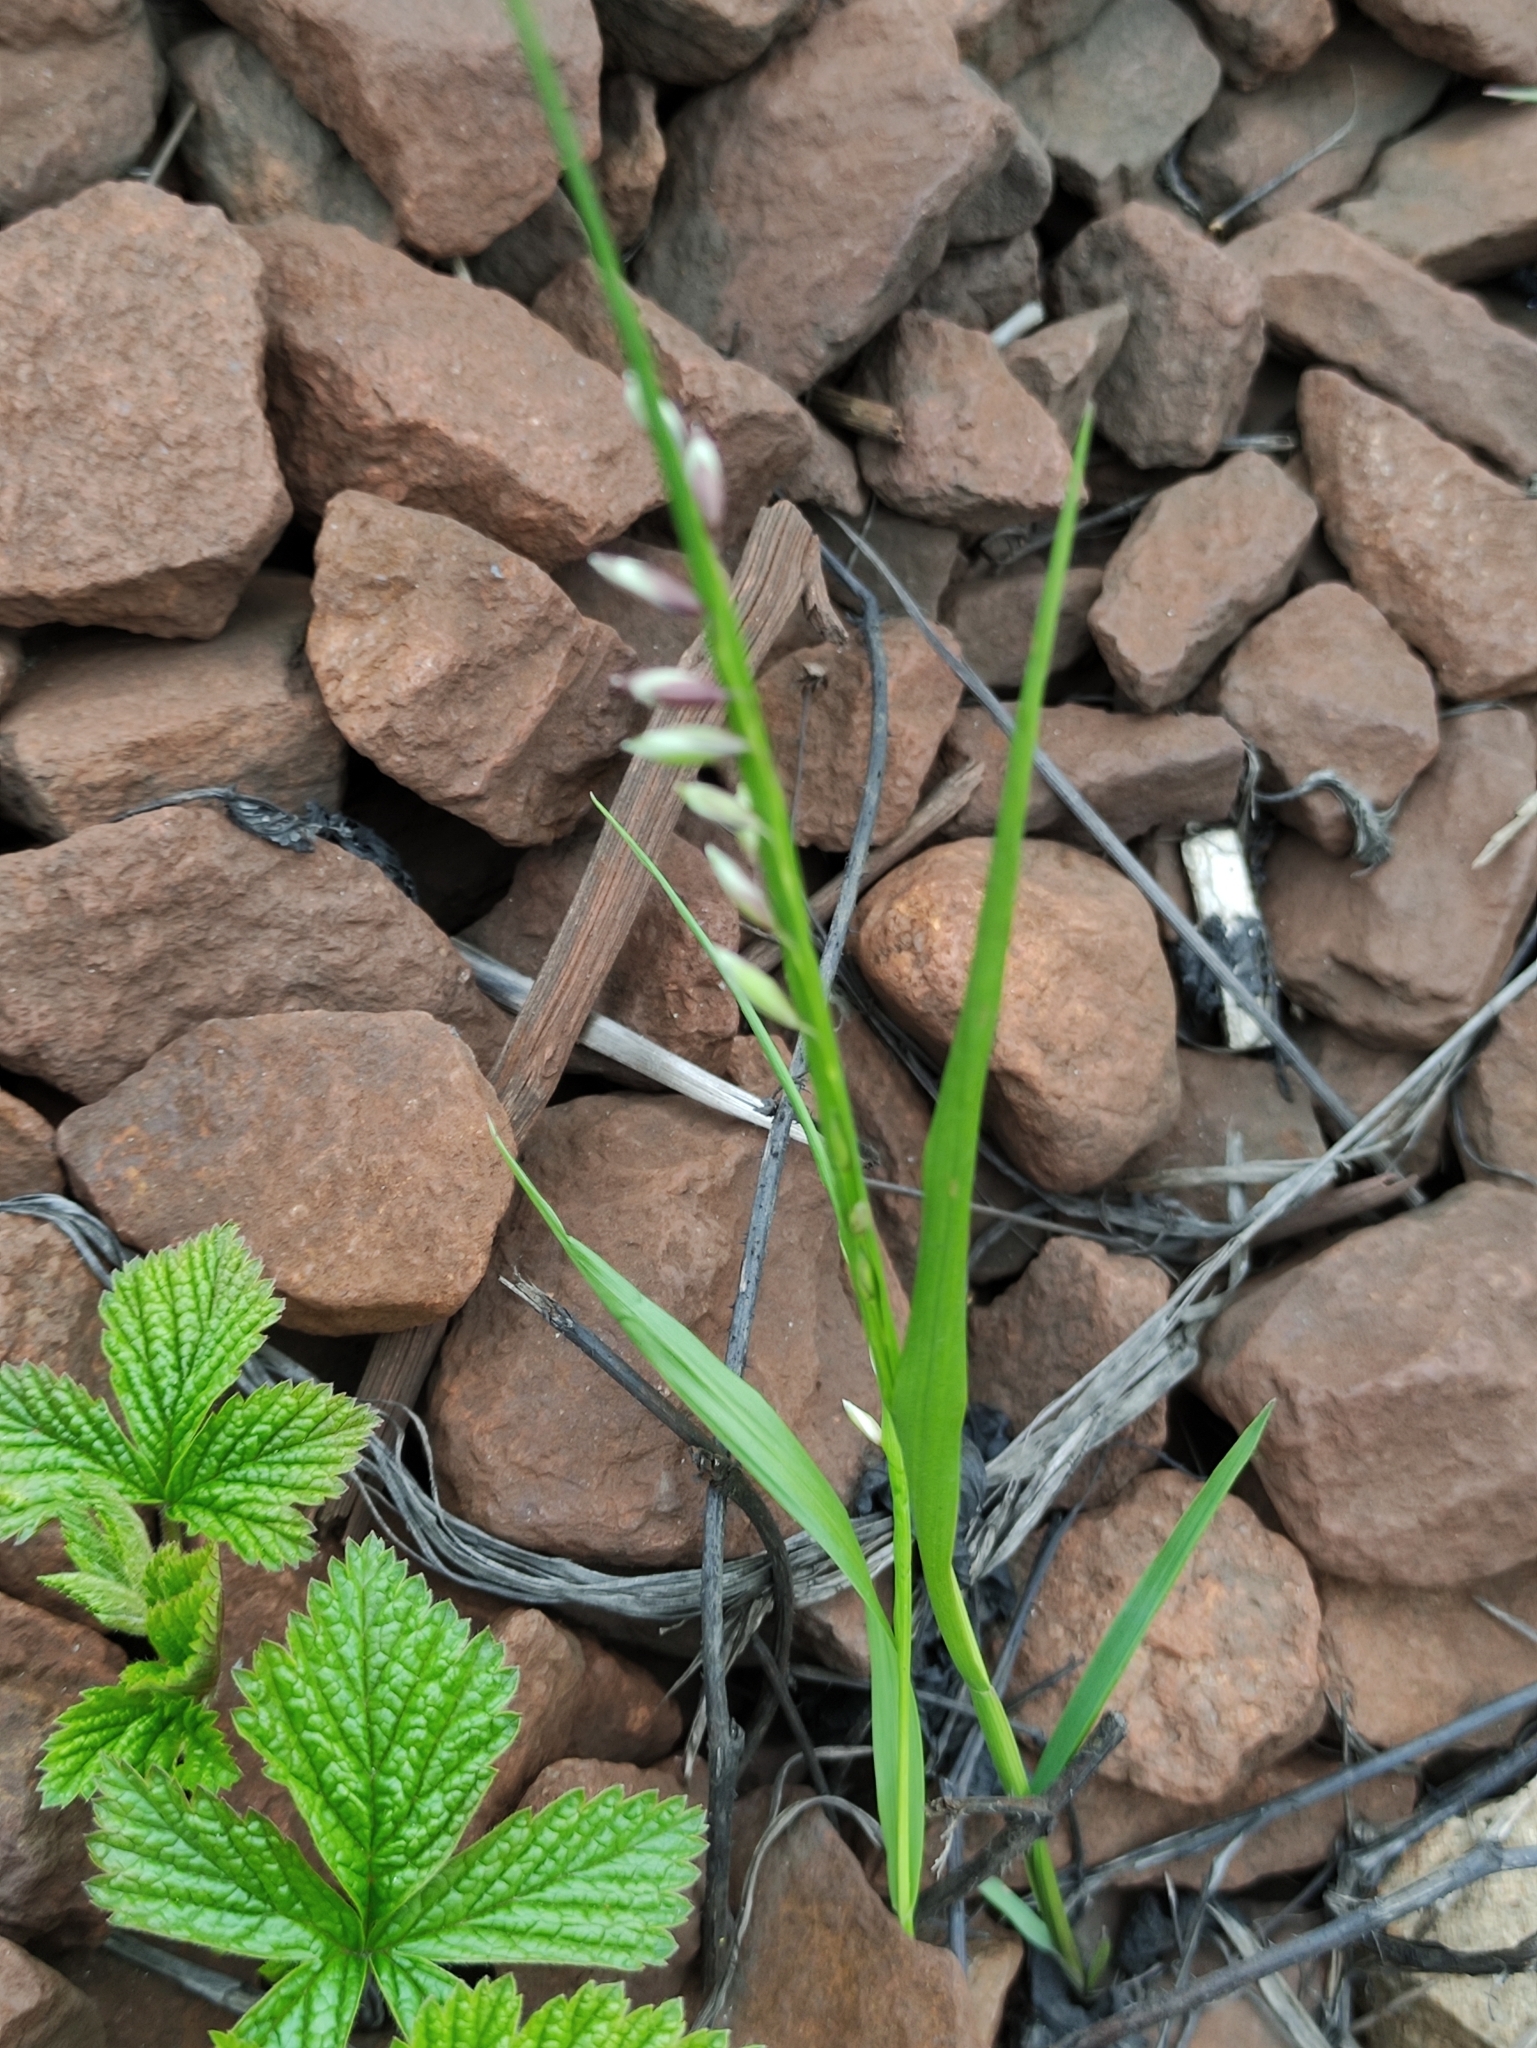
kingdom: Plantae
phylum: Tracheophyta
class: Liliopsida
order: Poales
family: Poaceae
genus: Melica
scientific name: Melica nutans
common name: Mountain melick
